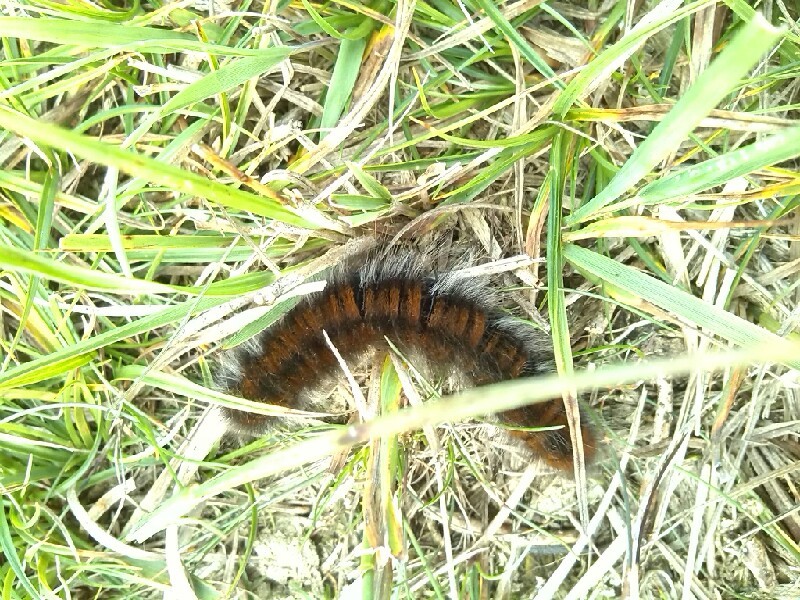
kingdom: Animalia
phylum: Arthropoda
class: Insecta
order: Lepidoptera
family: Lasiocampidae
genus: Macrothylacia
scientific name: Macrothylacia rubi
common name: Fox moth
